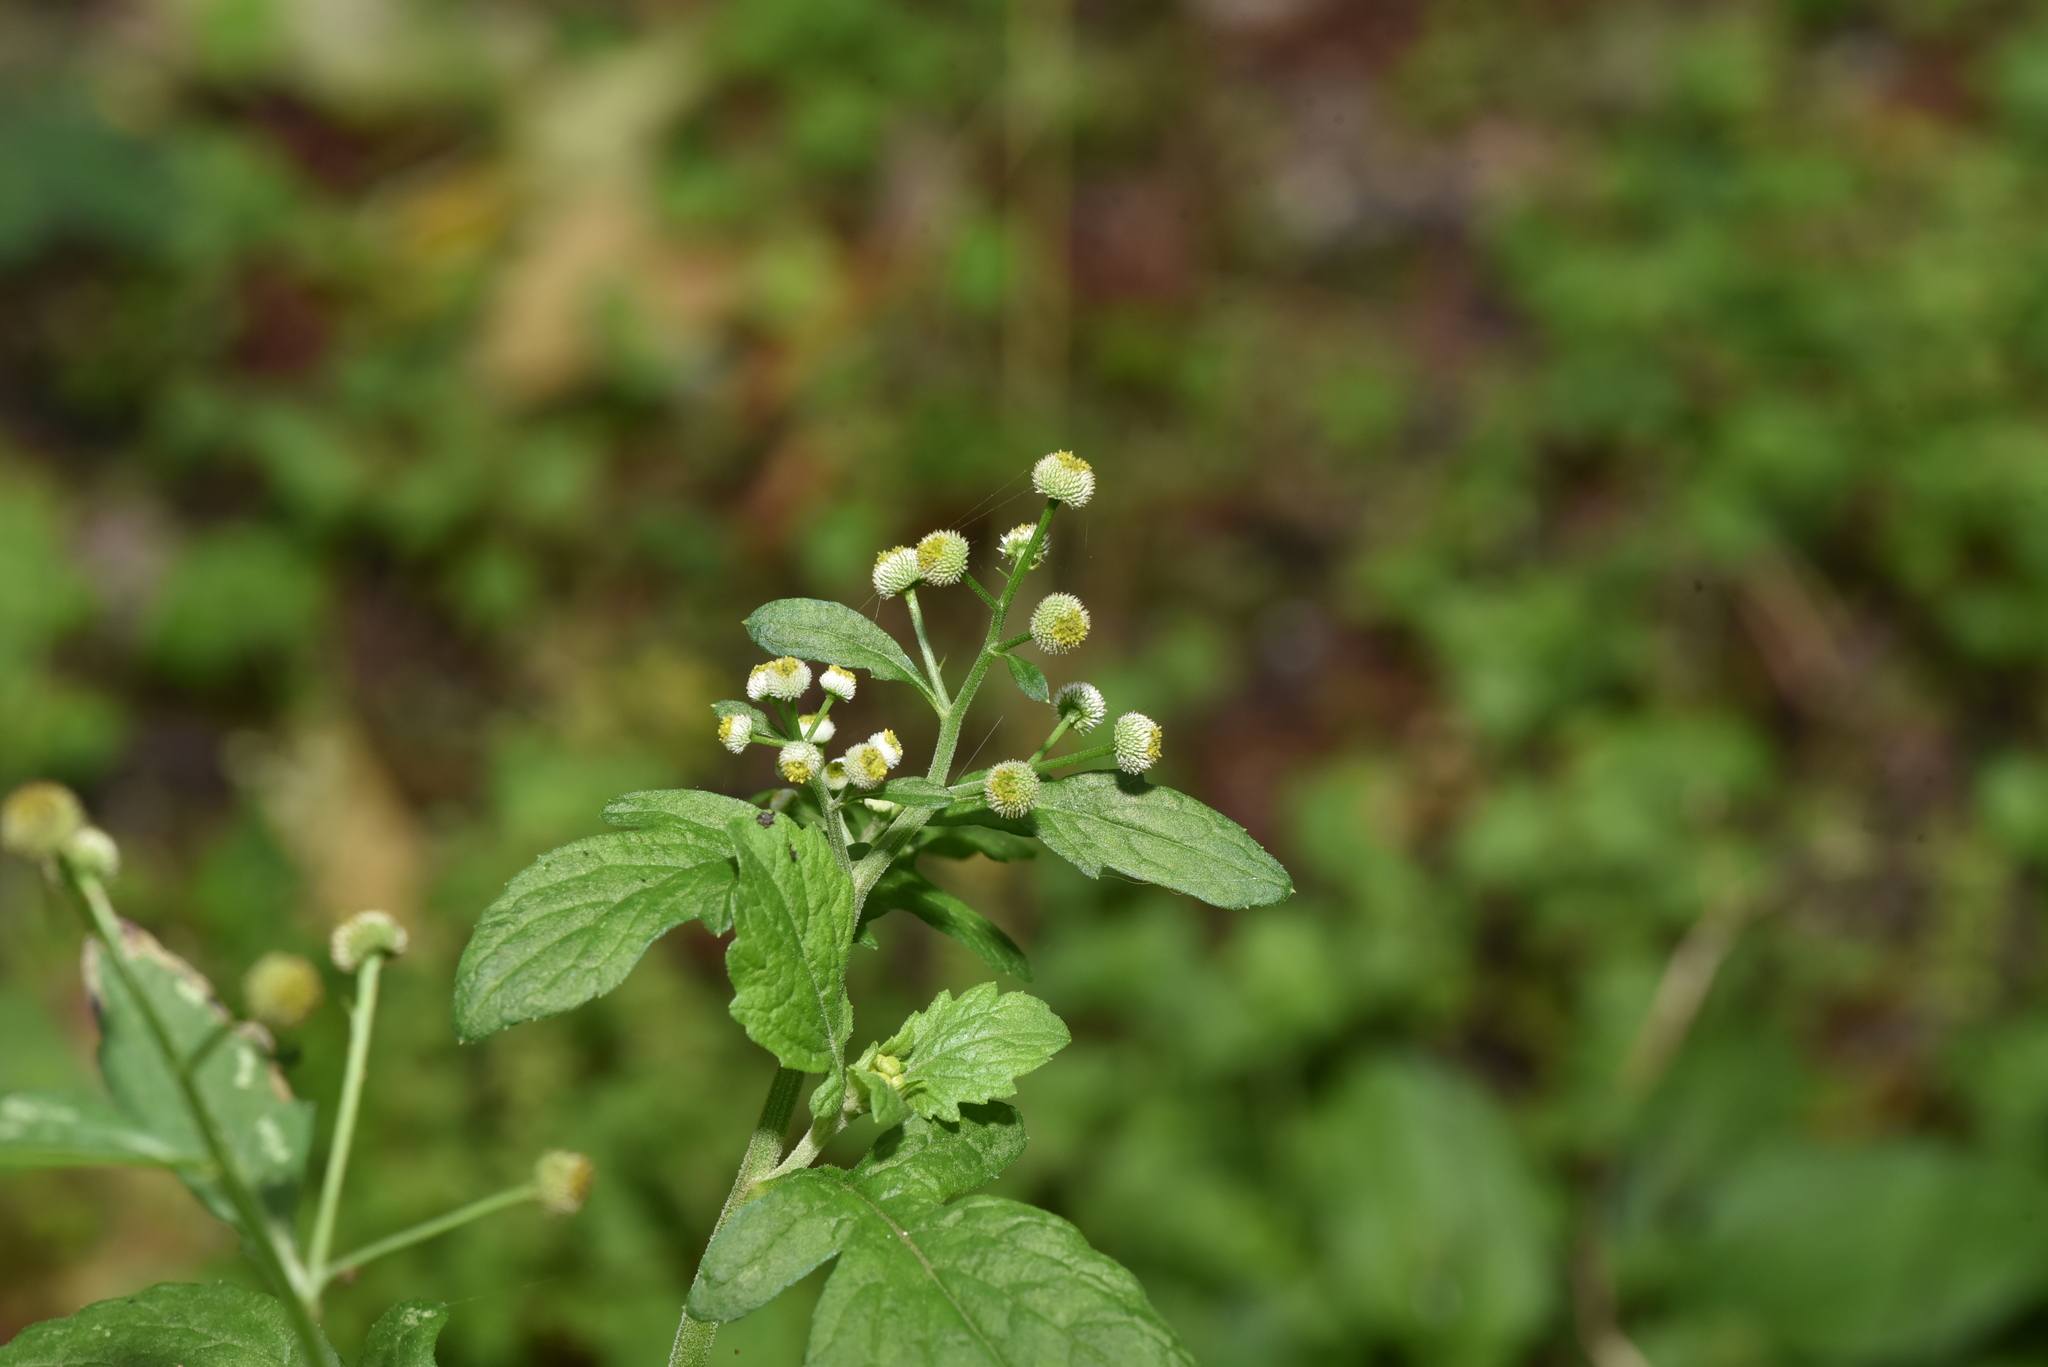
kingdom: Plantae
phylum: Tracheophyta
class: Magnoliopsida
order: Asterales
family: Asteraceae
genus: Dichrocephala
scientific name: Dichrocephala integrifolia
